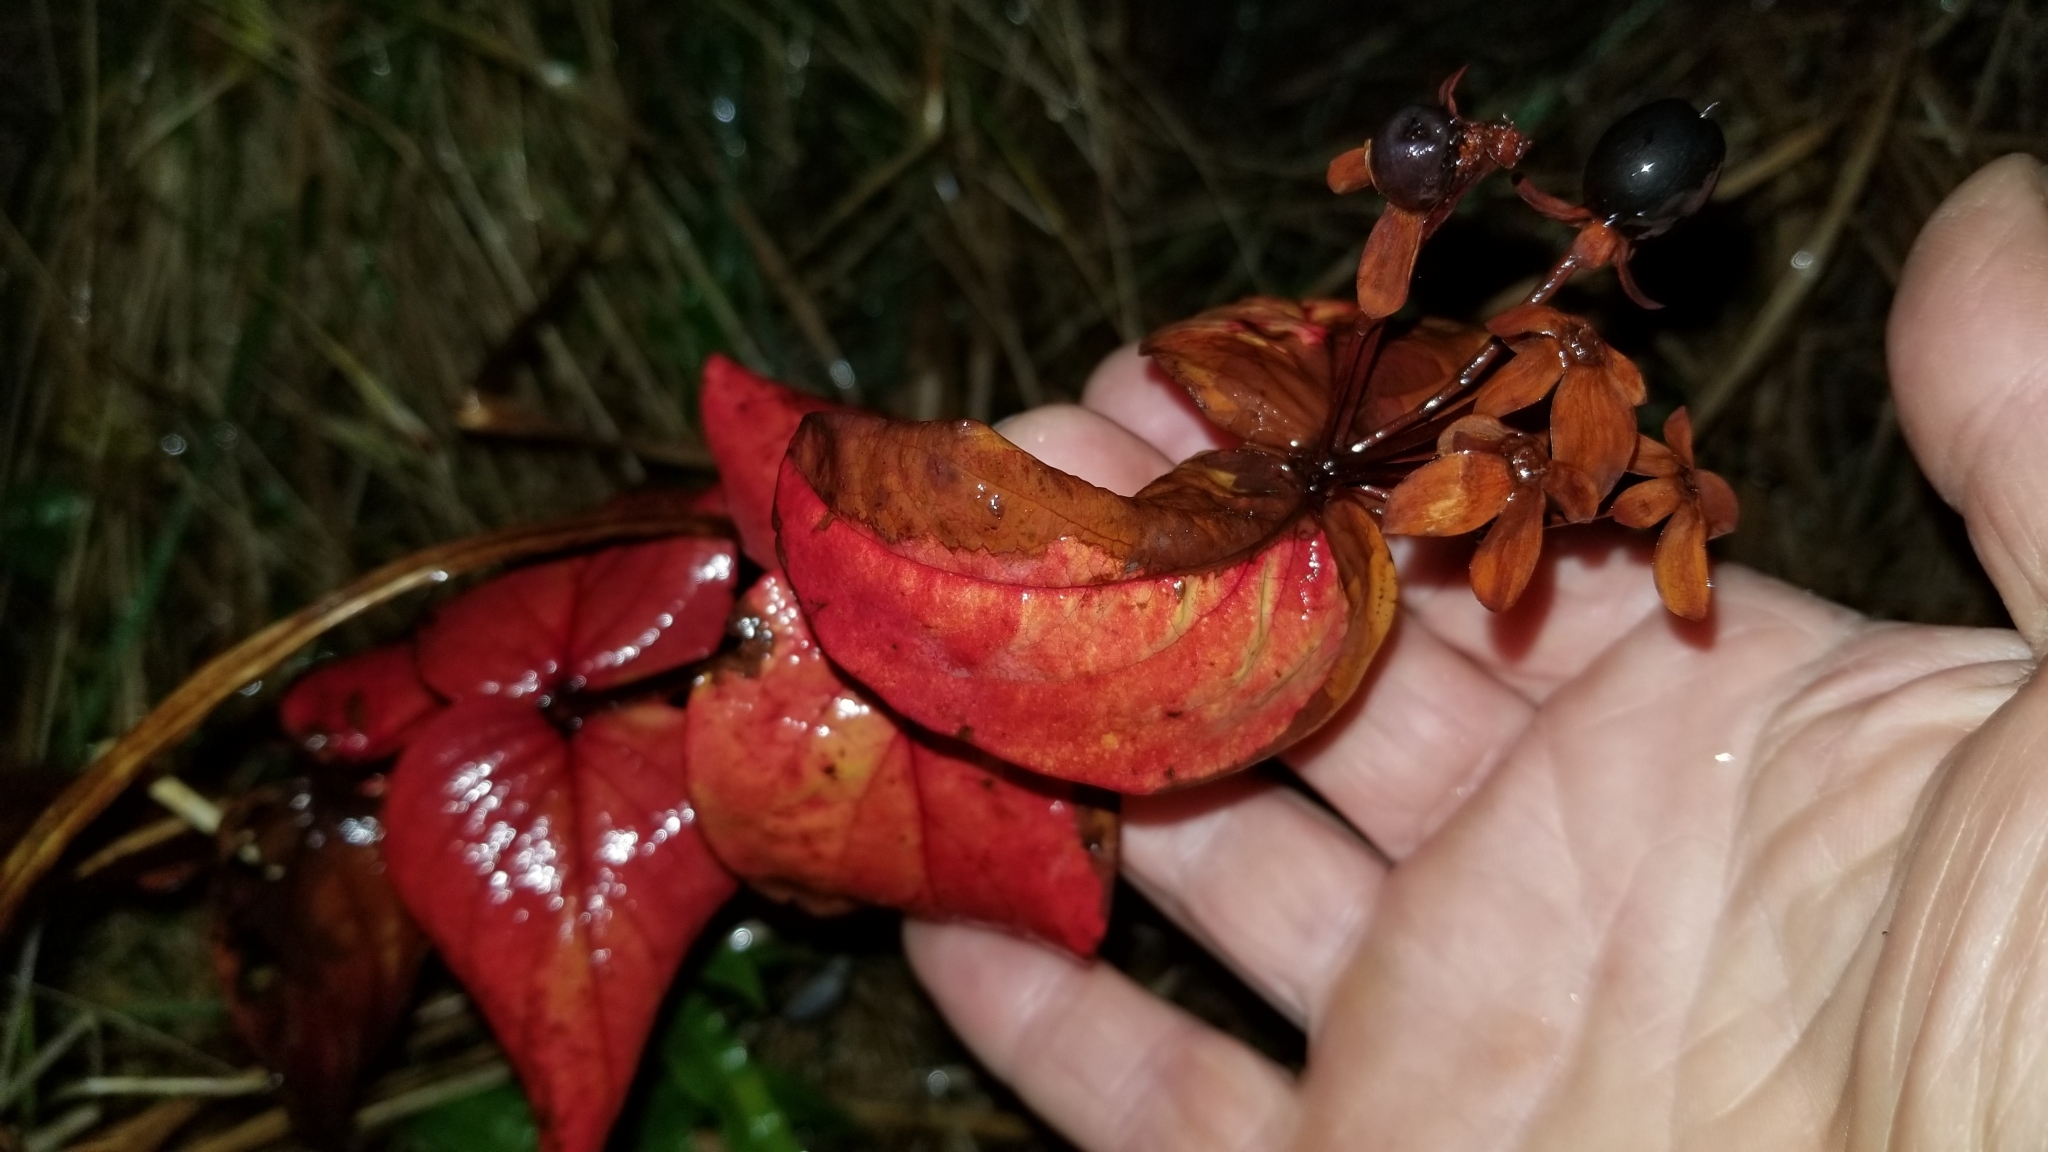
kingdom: Plantae
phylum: Tracheophyta
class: Magnoliopsida
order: Malpighiales
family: Hypericaceae
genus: Hypericum
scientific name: Hypericum androsaemum
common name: Sweet-amber
